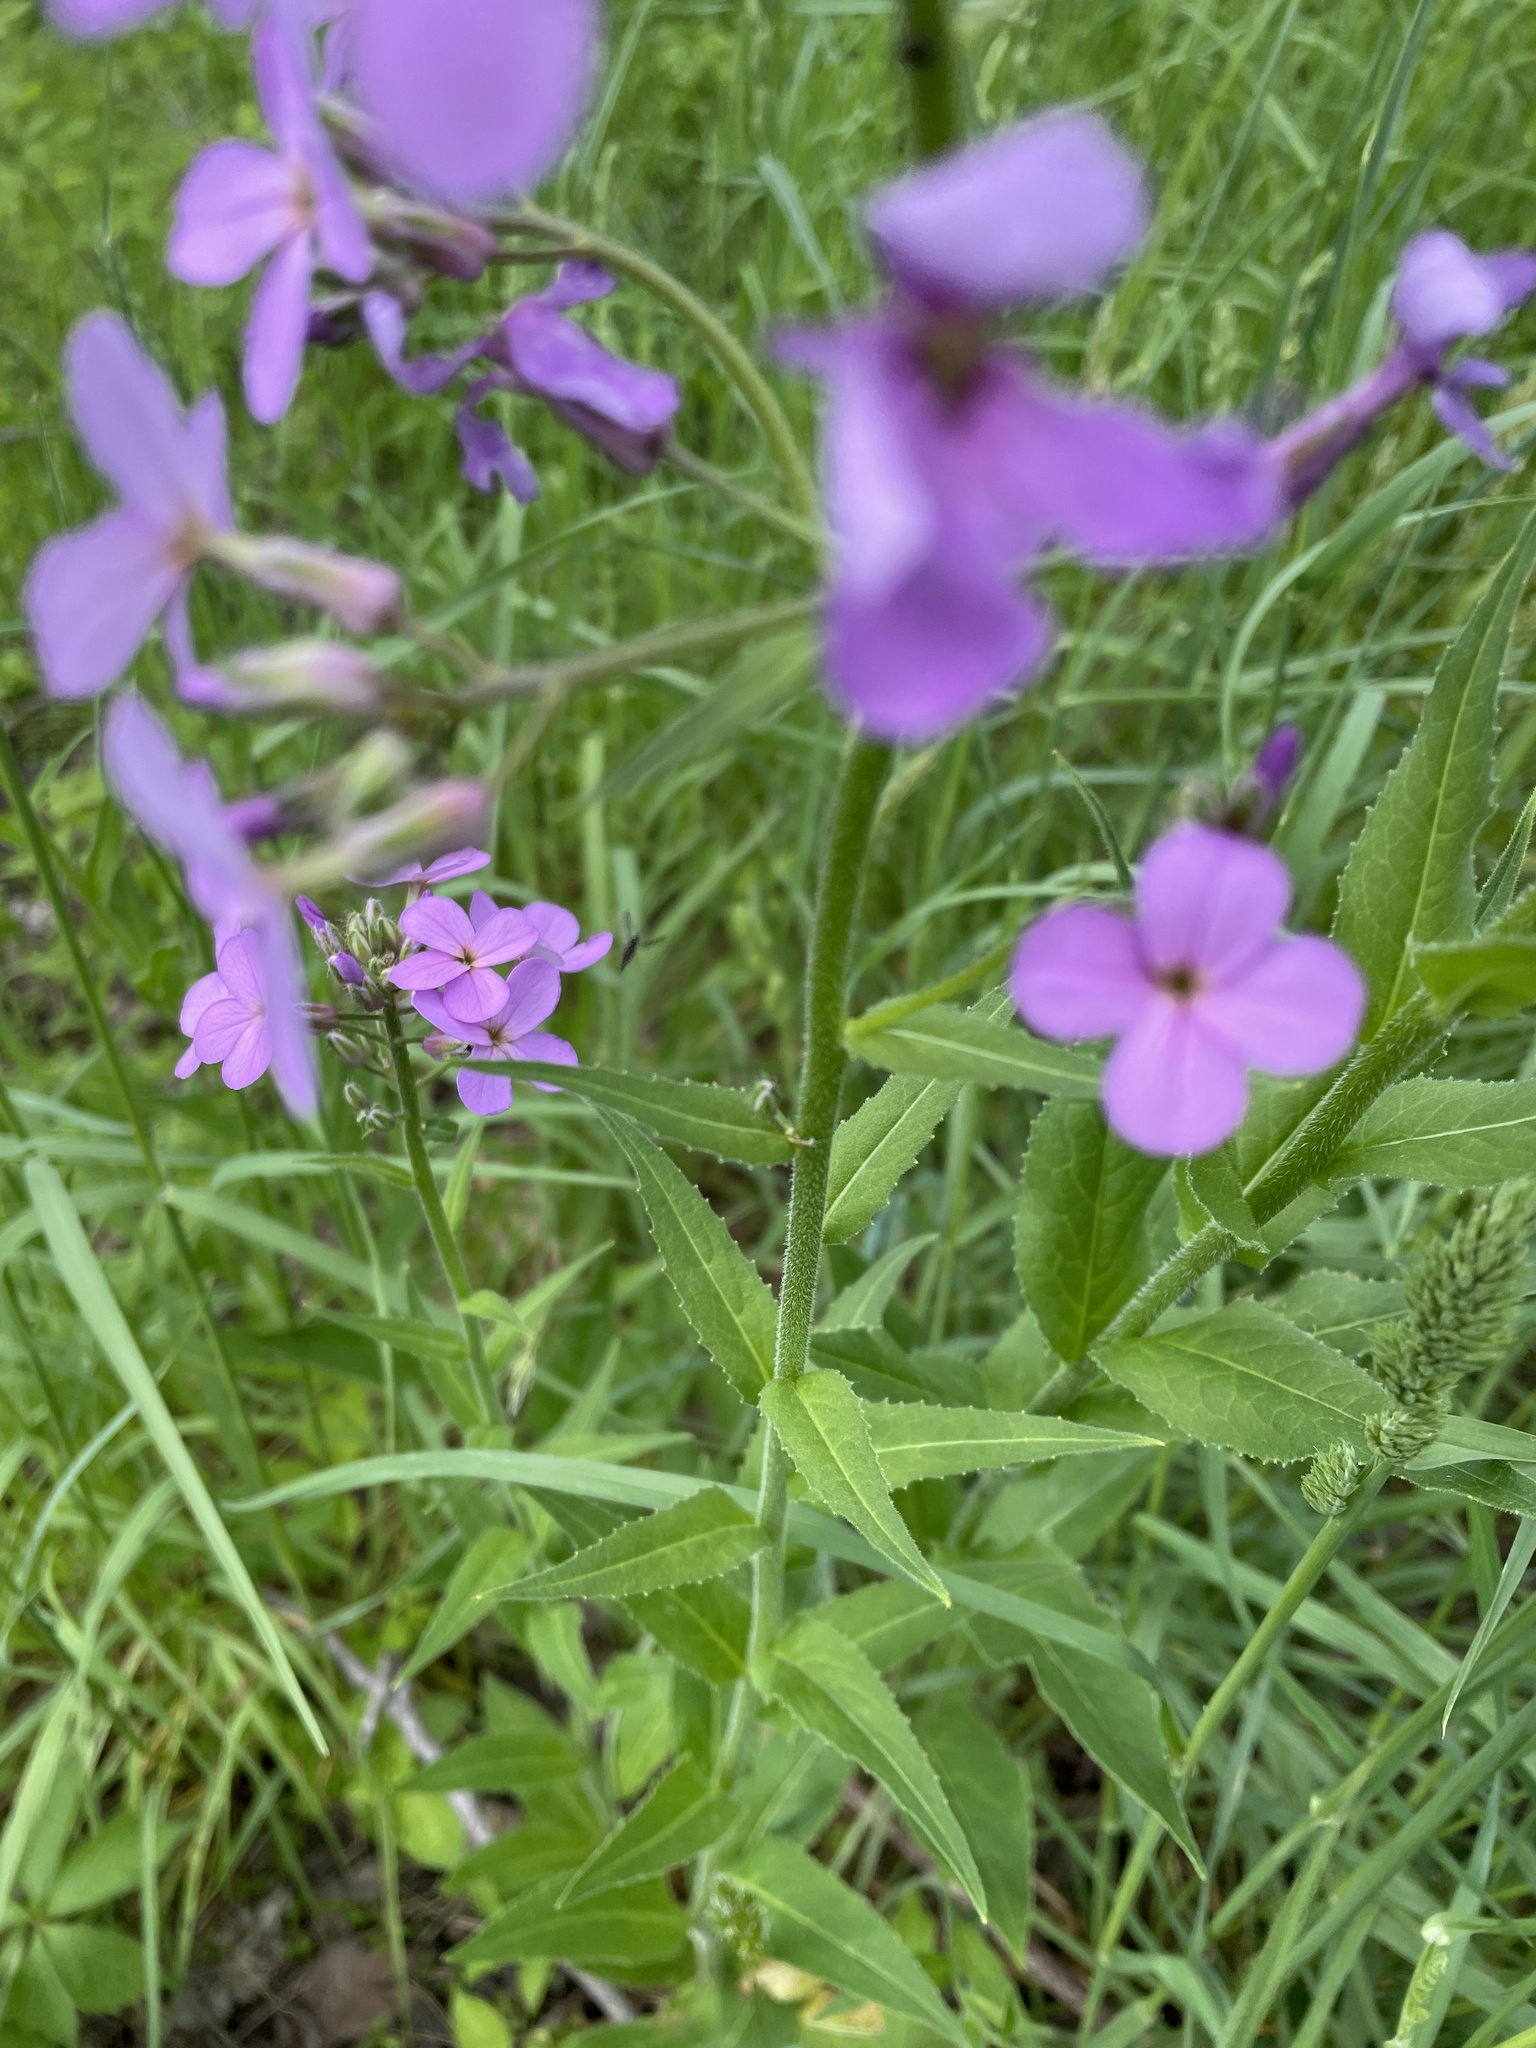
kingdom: Plantae
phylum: Tracheophyta
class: Magnoliopsida
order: Brassicales
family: Brassicaceae
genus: Hesperis
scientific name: Hesperis matronalis
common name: Dame's-violet
